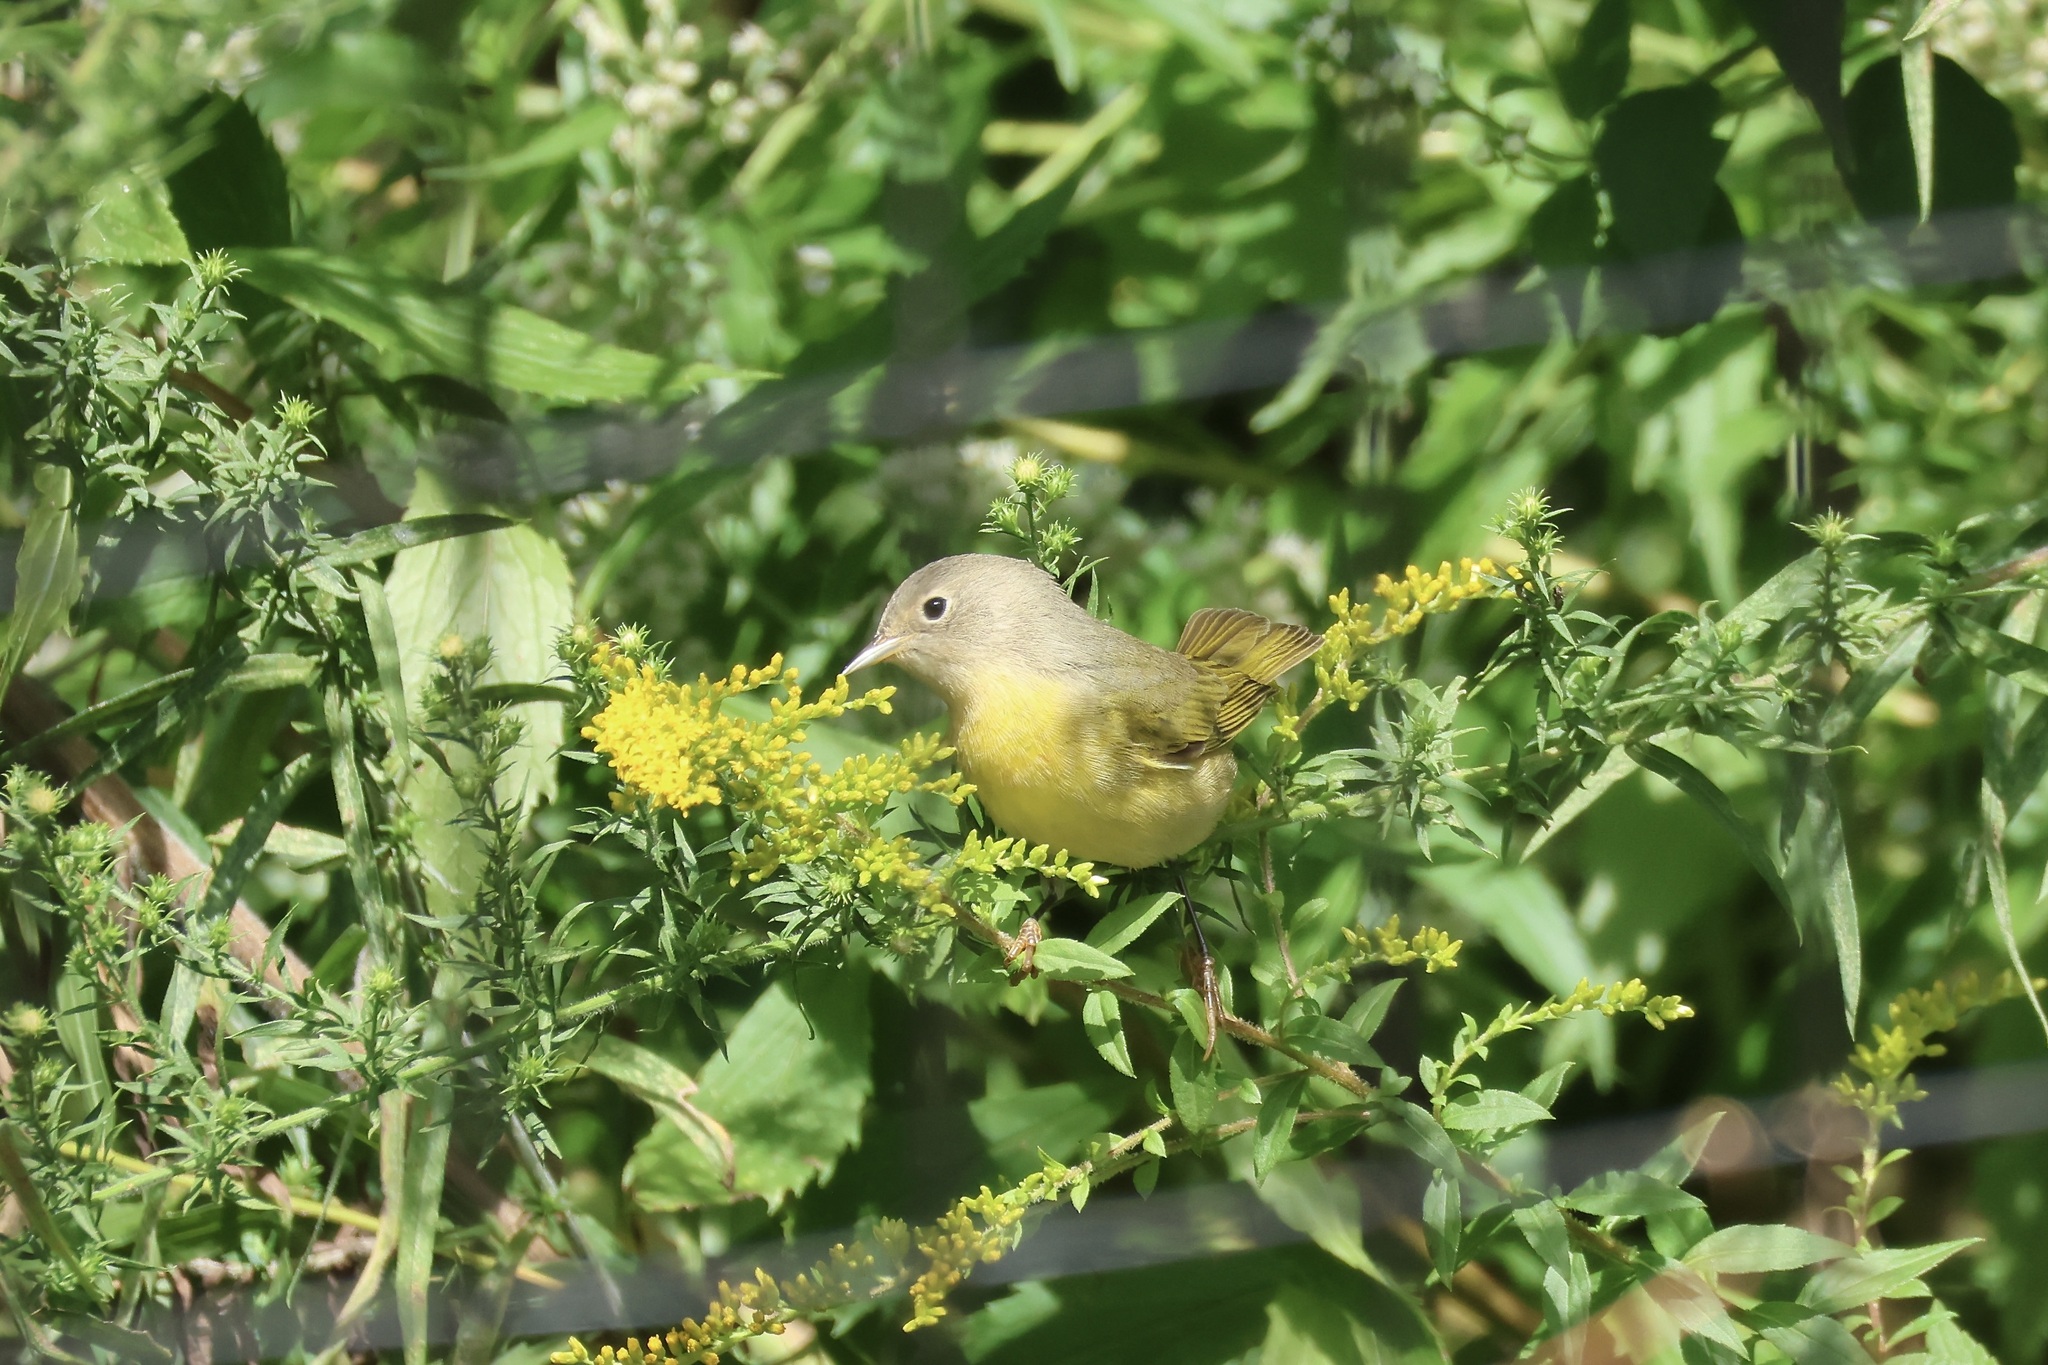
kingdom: Animalia
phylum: Chordata
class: Aves
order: Passeriformes
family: Parulidae
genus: Leiothlypis
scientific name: Leiothlypis ruficapilla
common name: Nashville warbler
